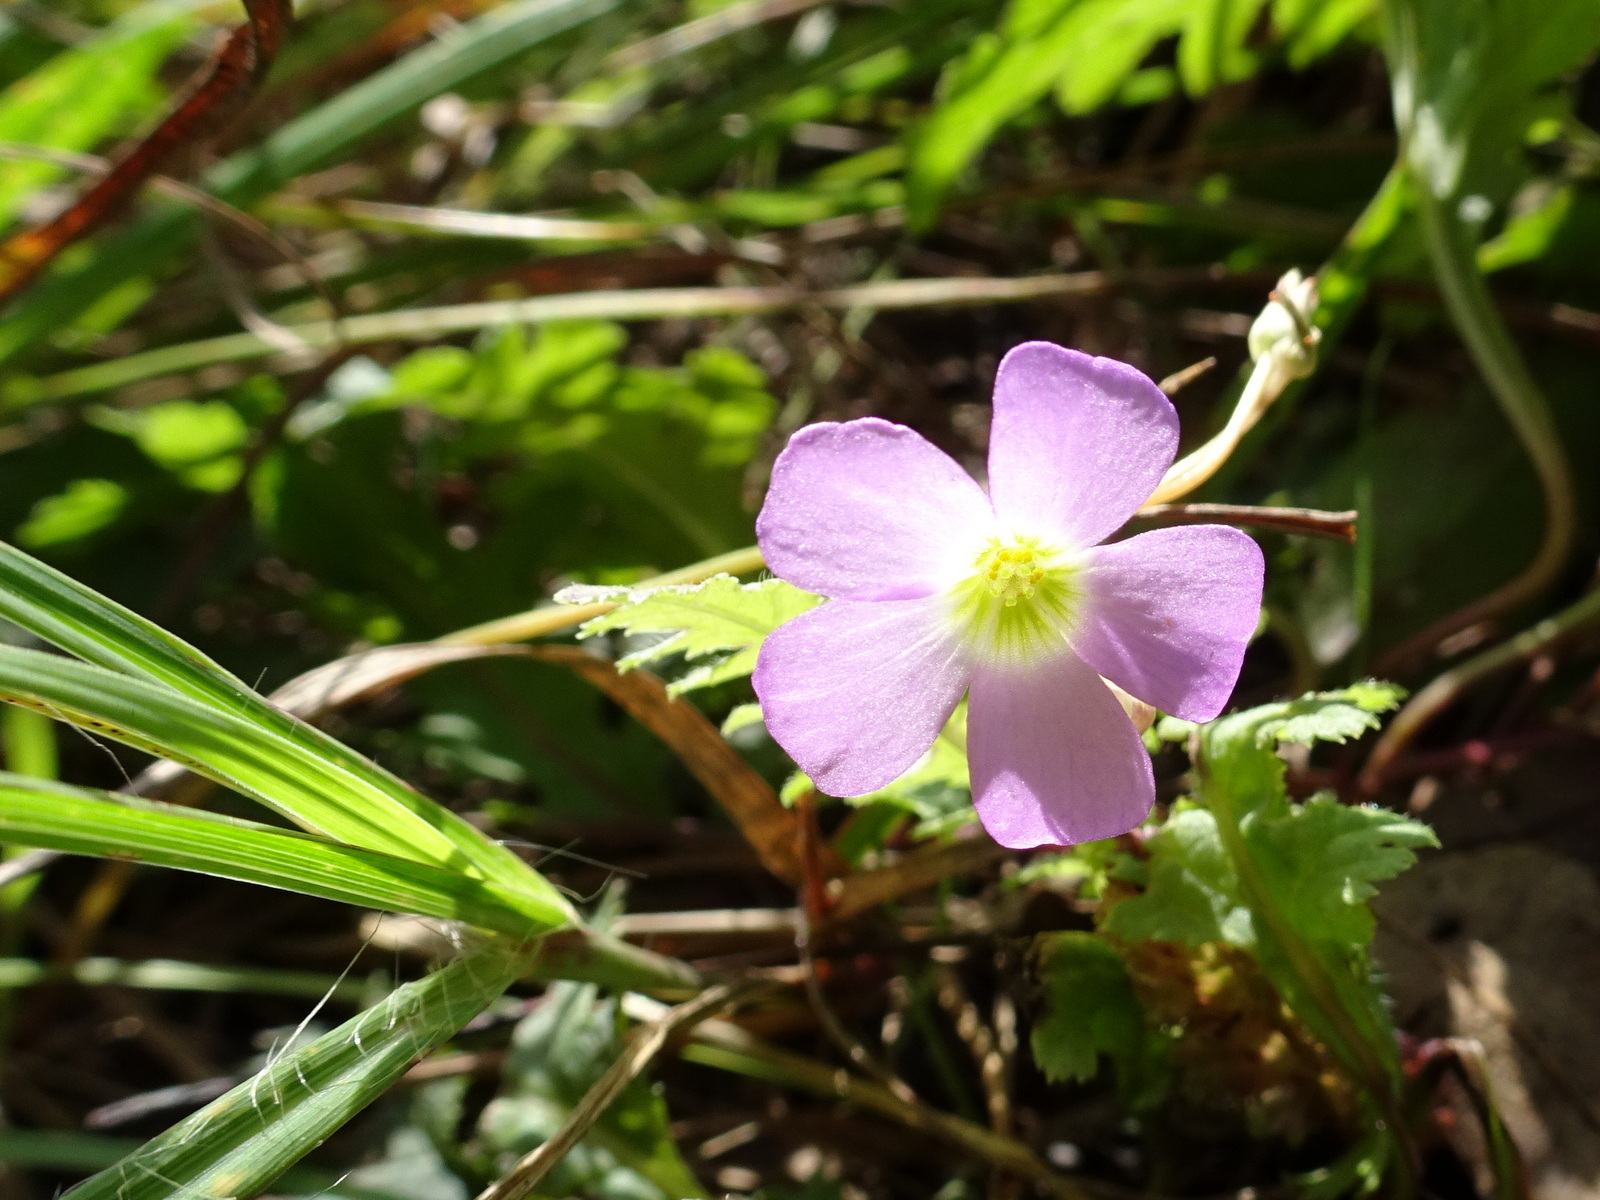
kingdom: Plantae
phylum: Tracheophyta
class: Magnoliopsida
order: Oxalidales
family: Oxalidaceae
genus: Oxalis
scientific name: Oxalis violacea
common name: Violet wood-sorrel
